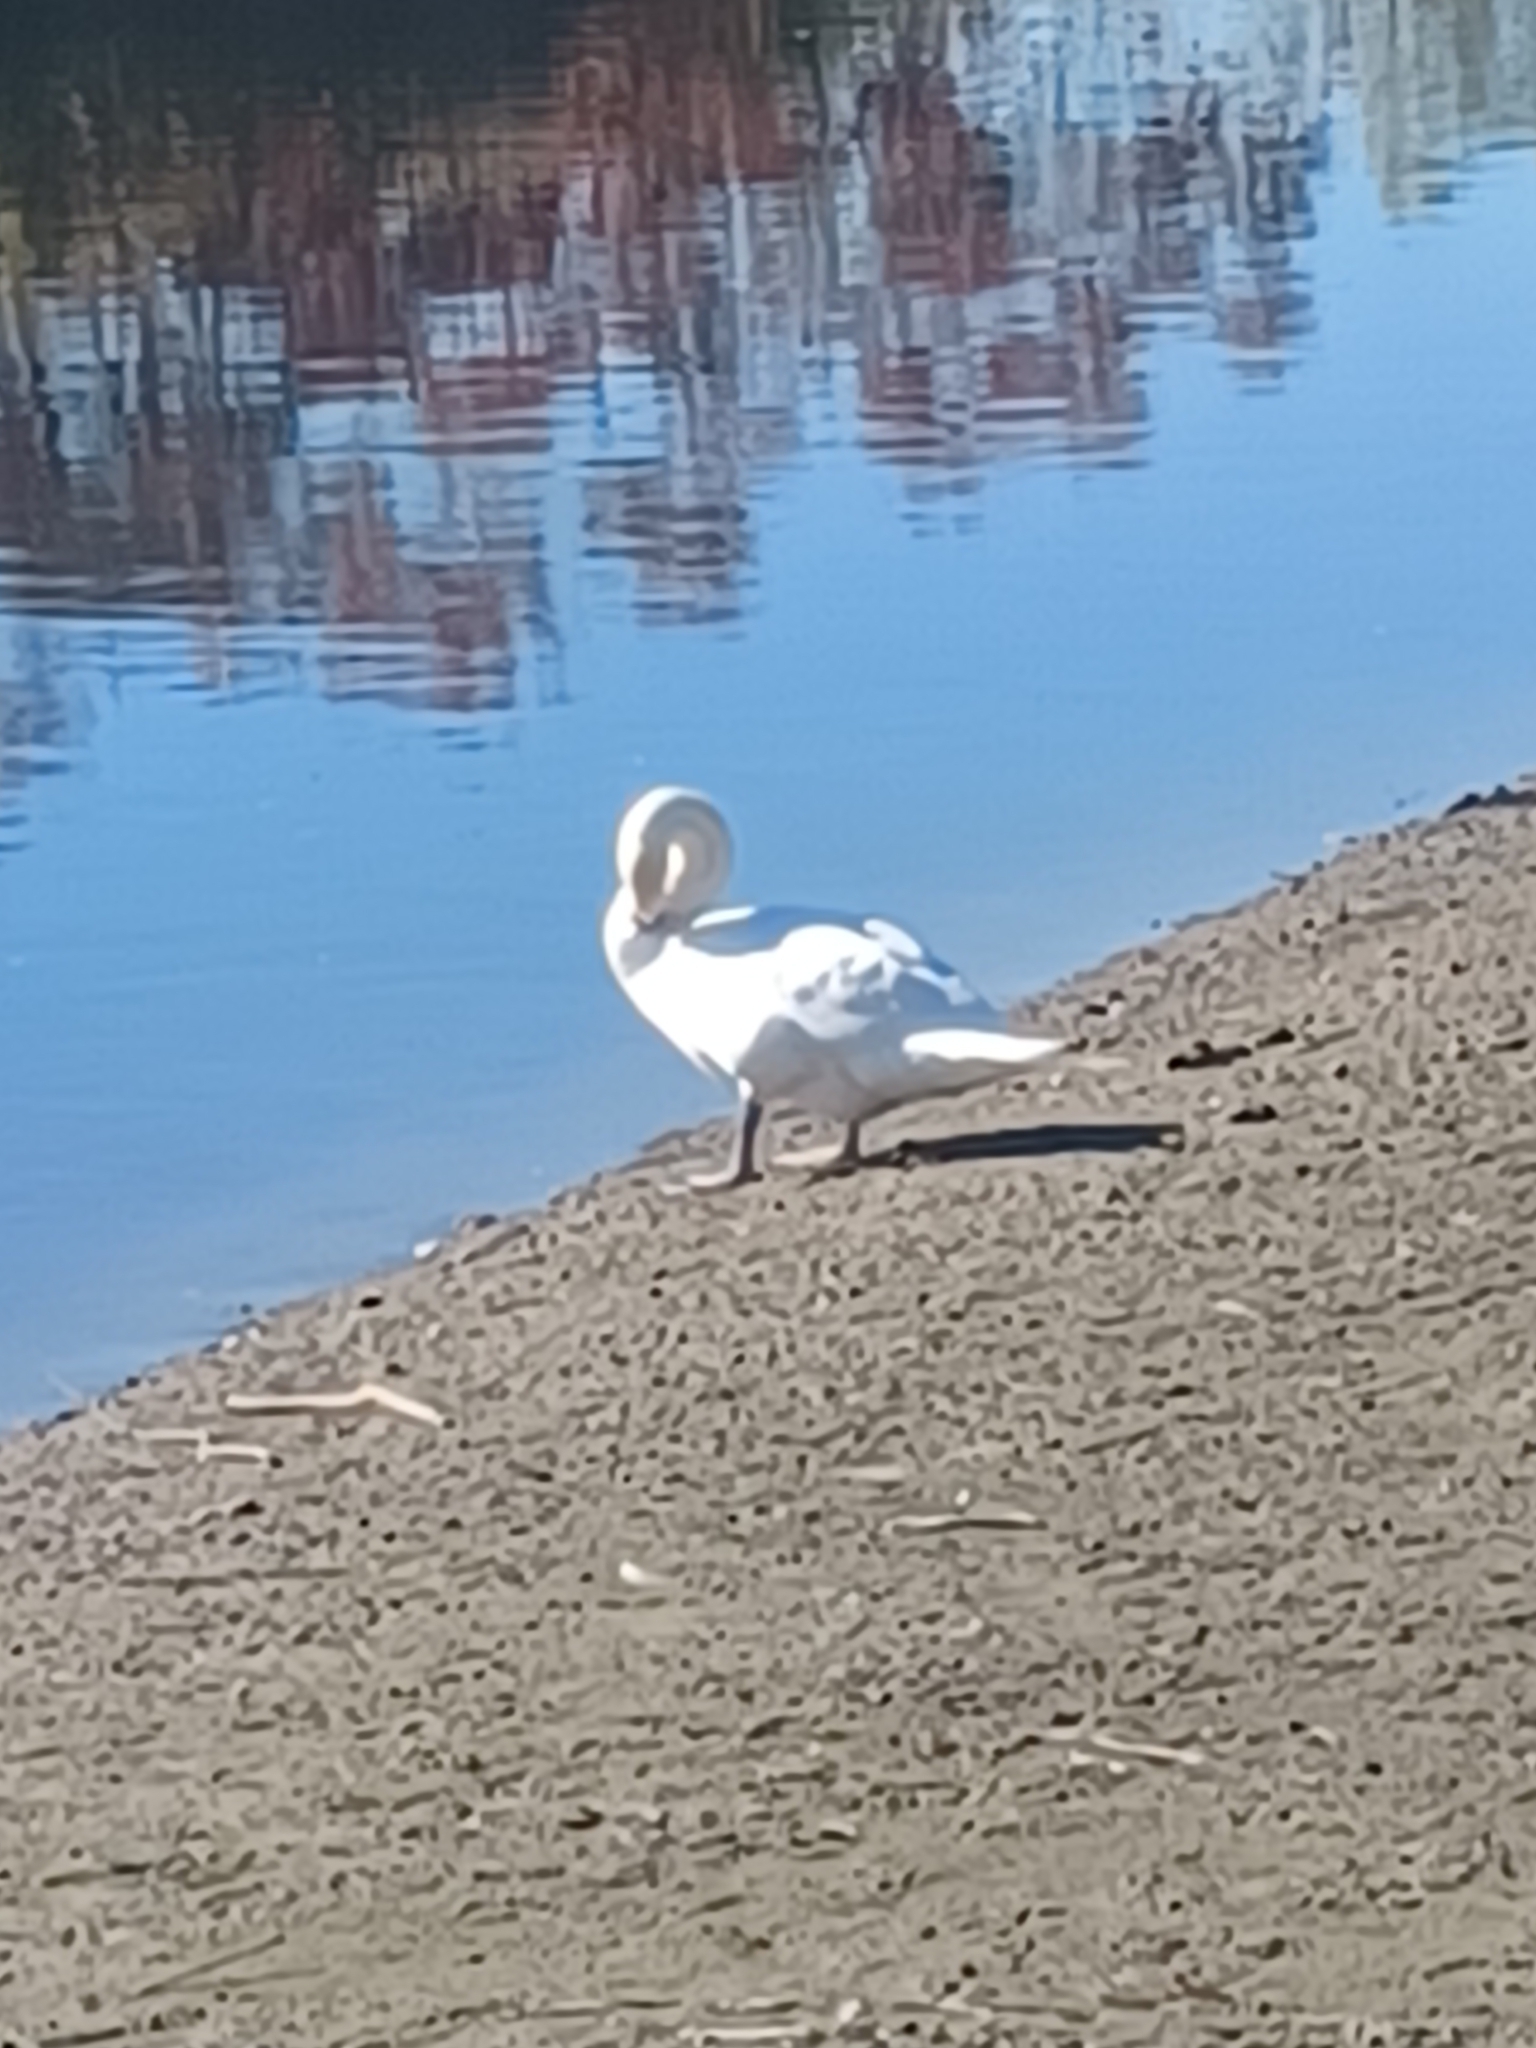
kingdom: Animalia
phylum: Chordata
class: Aves
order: Anseriformes
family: Anatidae
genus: Cygnus
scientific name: Cygnus olor
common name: Mute swan
